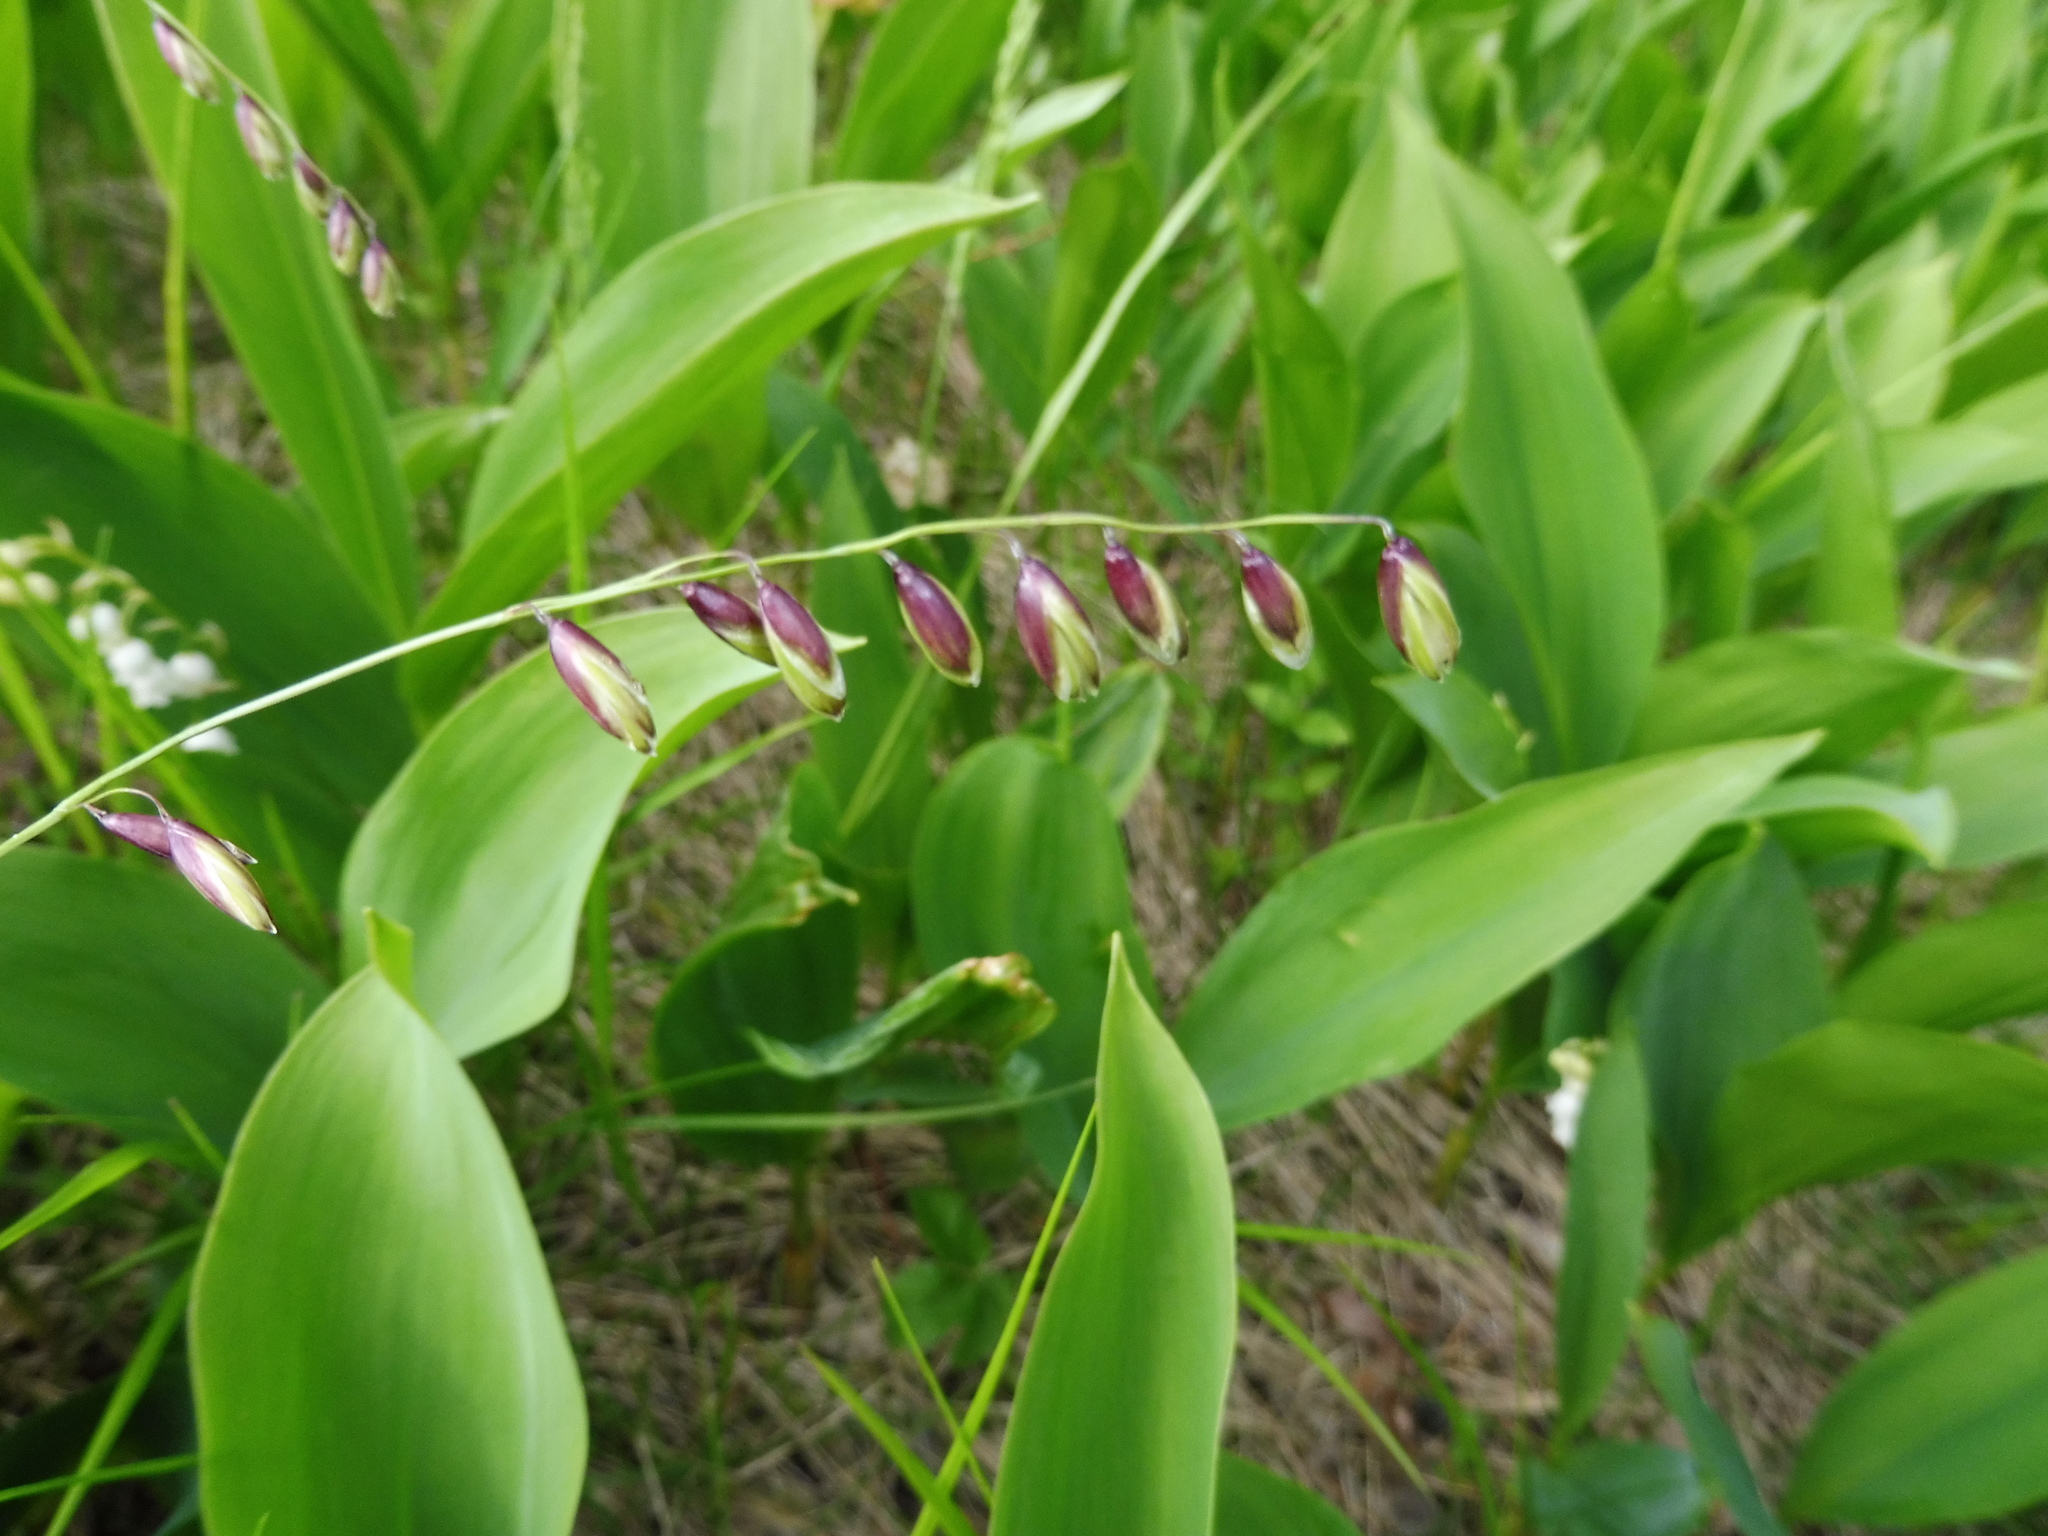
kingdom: Plantae
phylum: Tracheophyta
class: Liliopsida
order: Poales
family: Poaceae
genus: Melica
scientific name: Melica nutans
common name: Mountain melick
